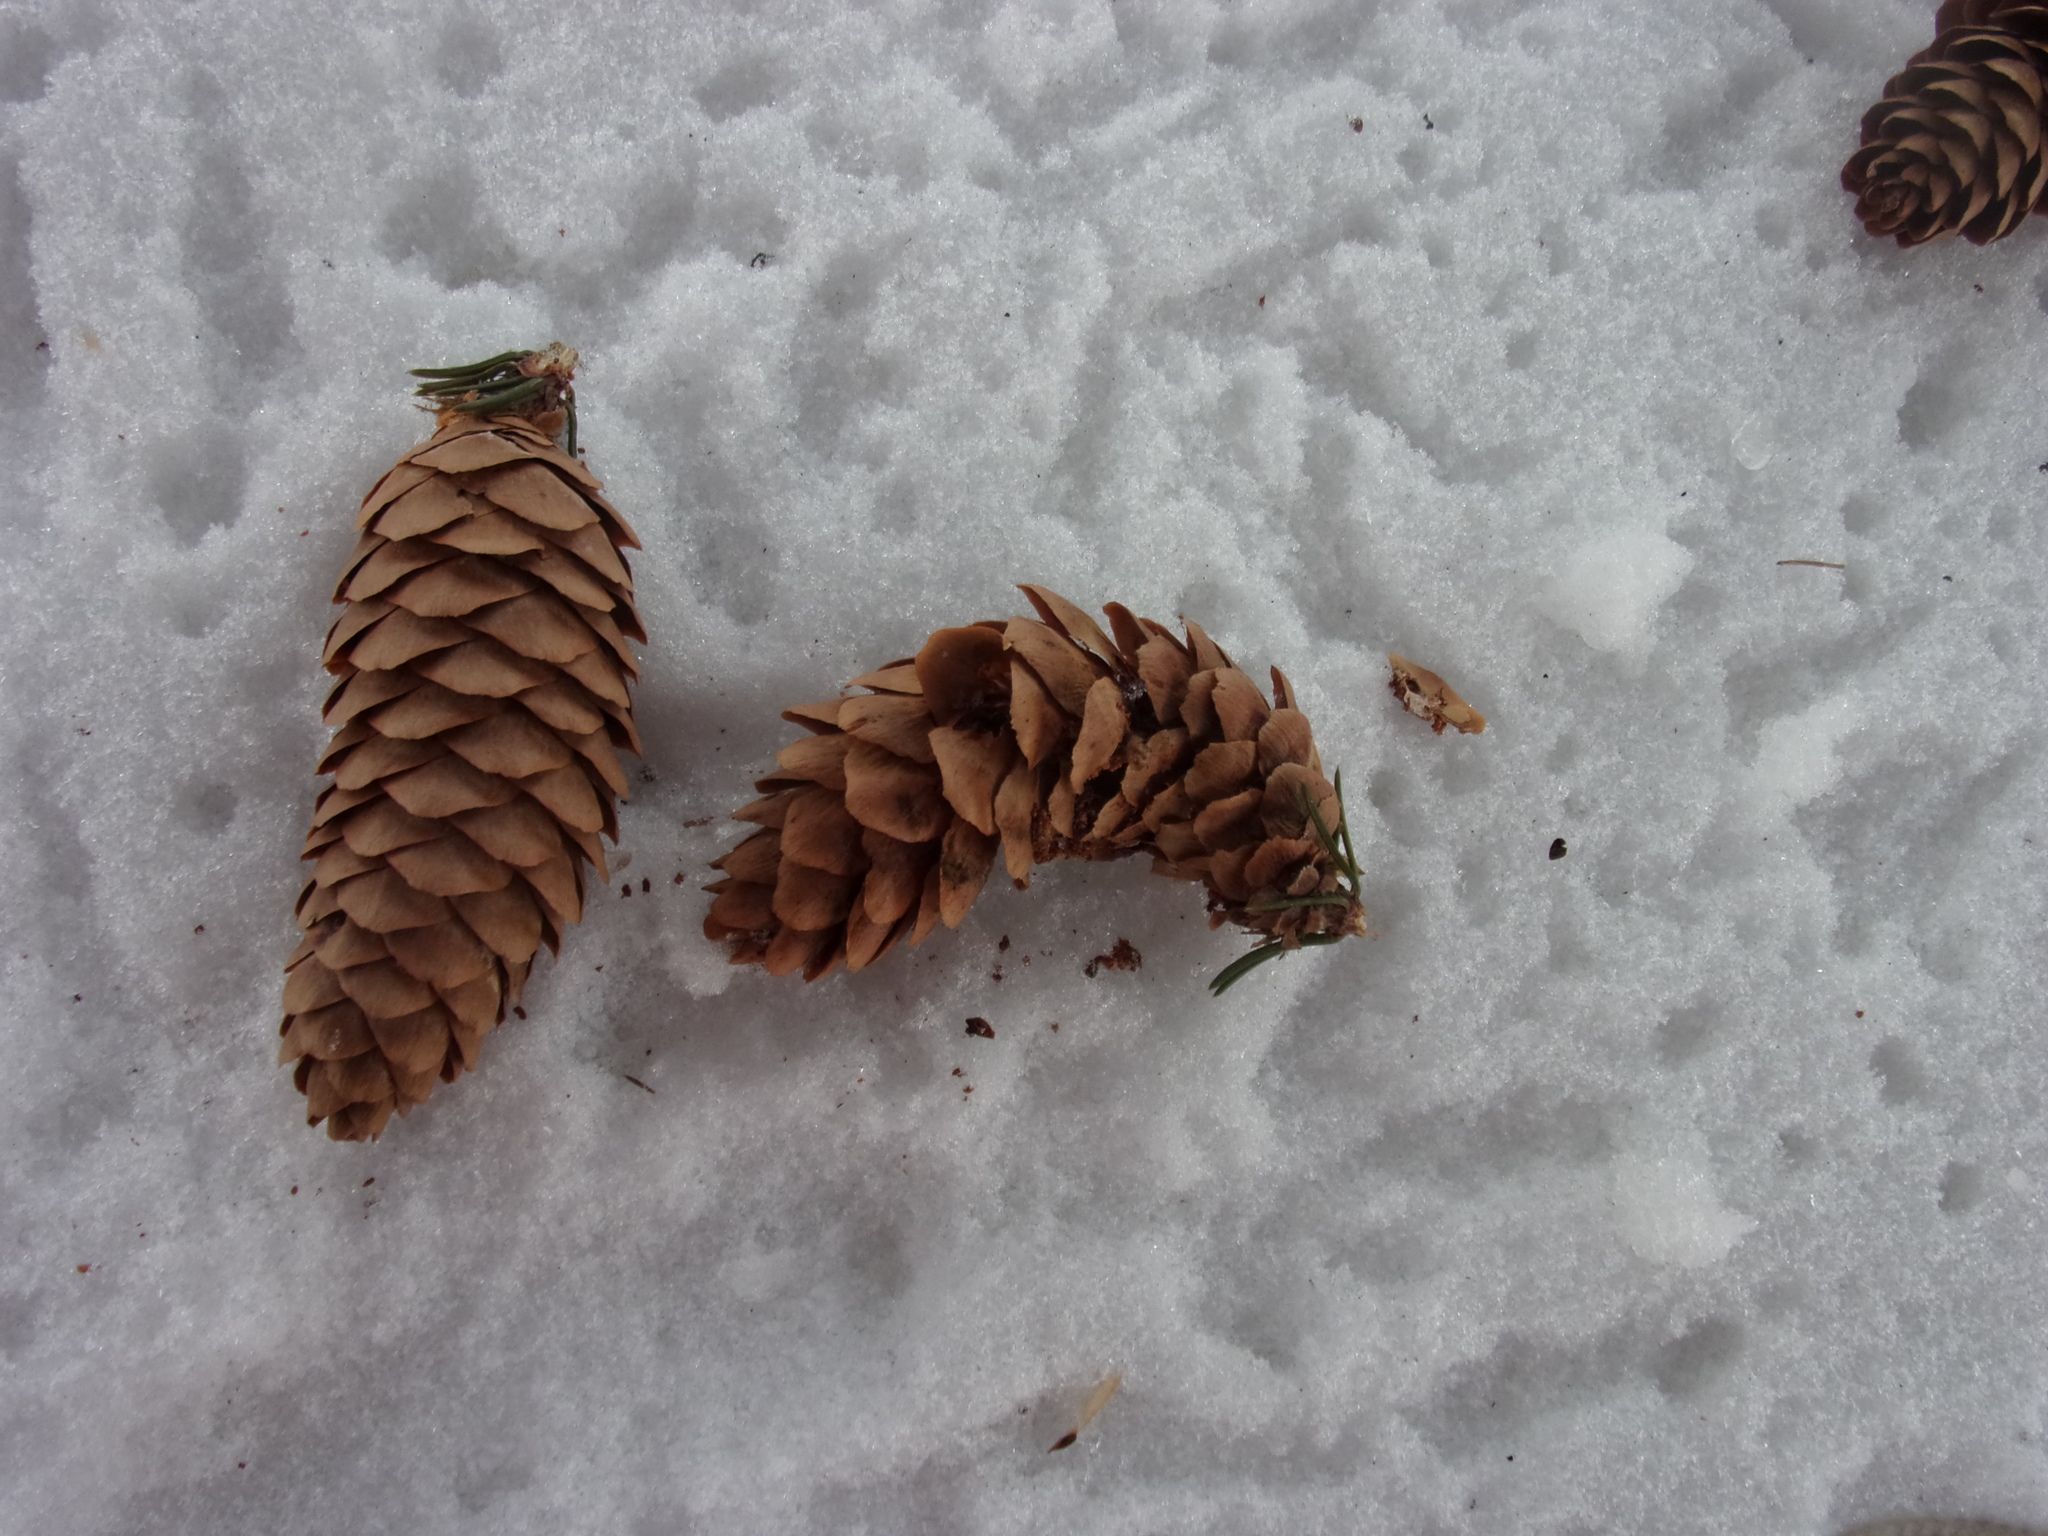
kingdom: Plantae
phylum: Tracheophyta
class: Pinopsida
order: Pinales
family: Pinaceae
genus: Picea
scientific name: Picea obovata
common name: Siberian spruce
